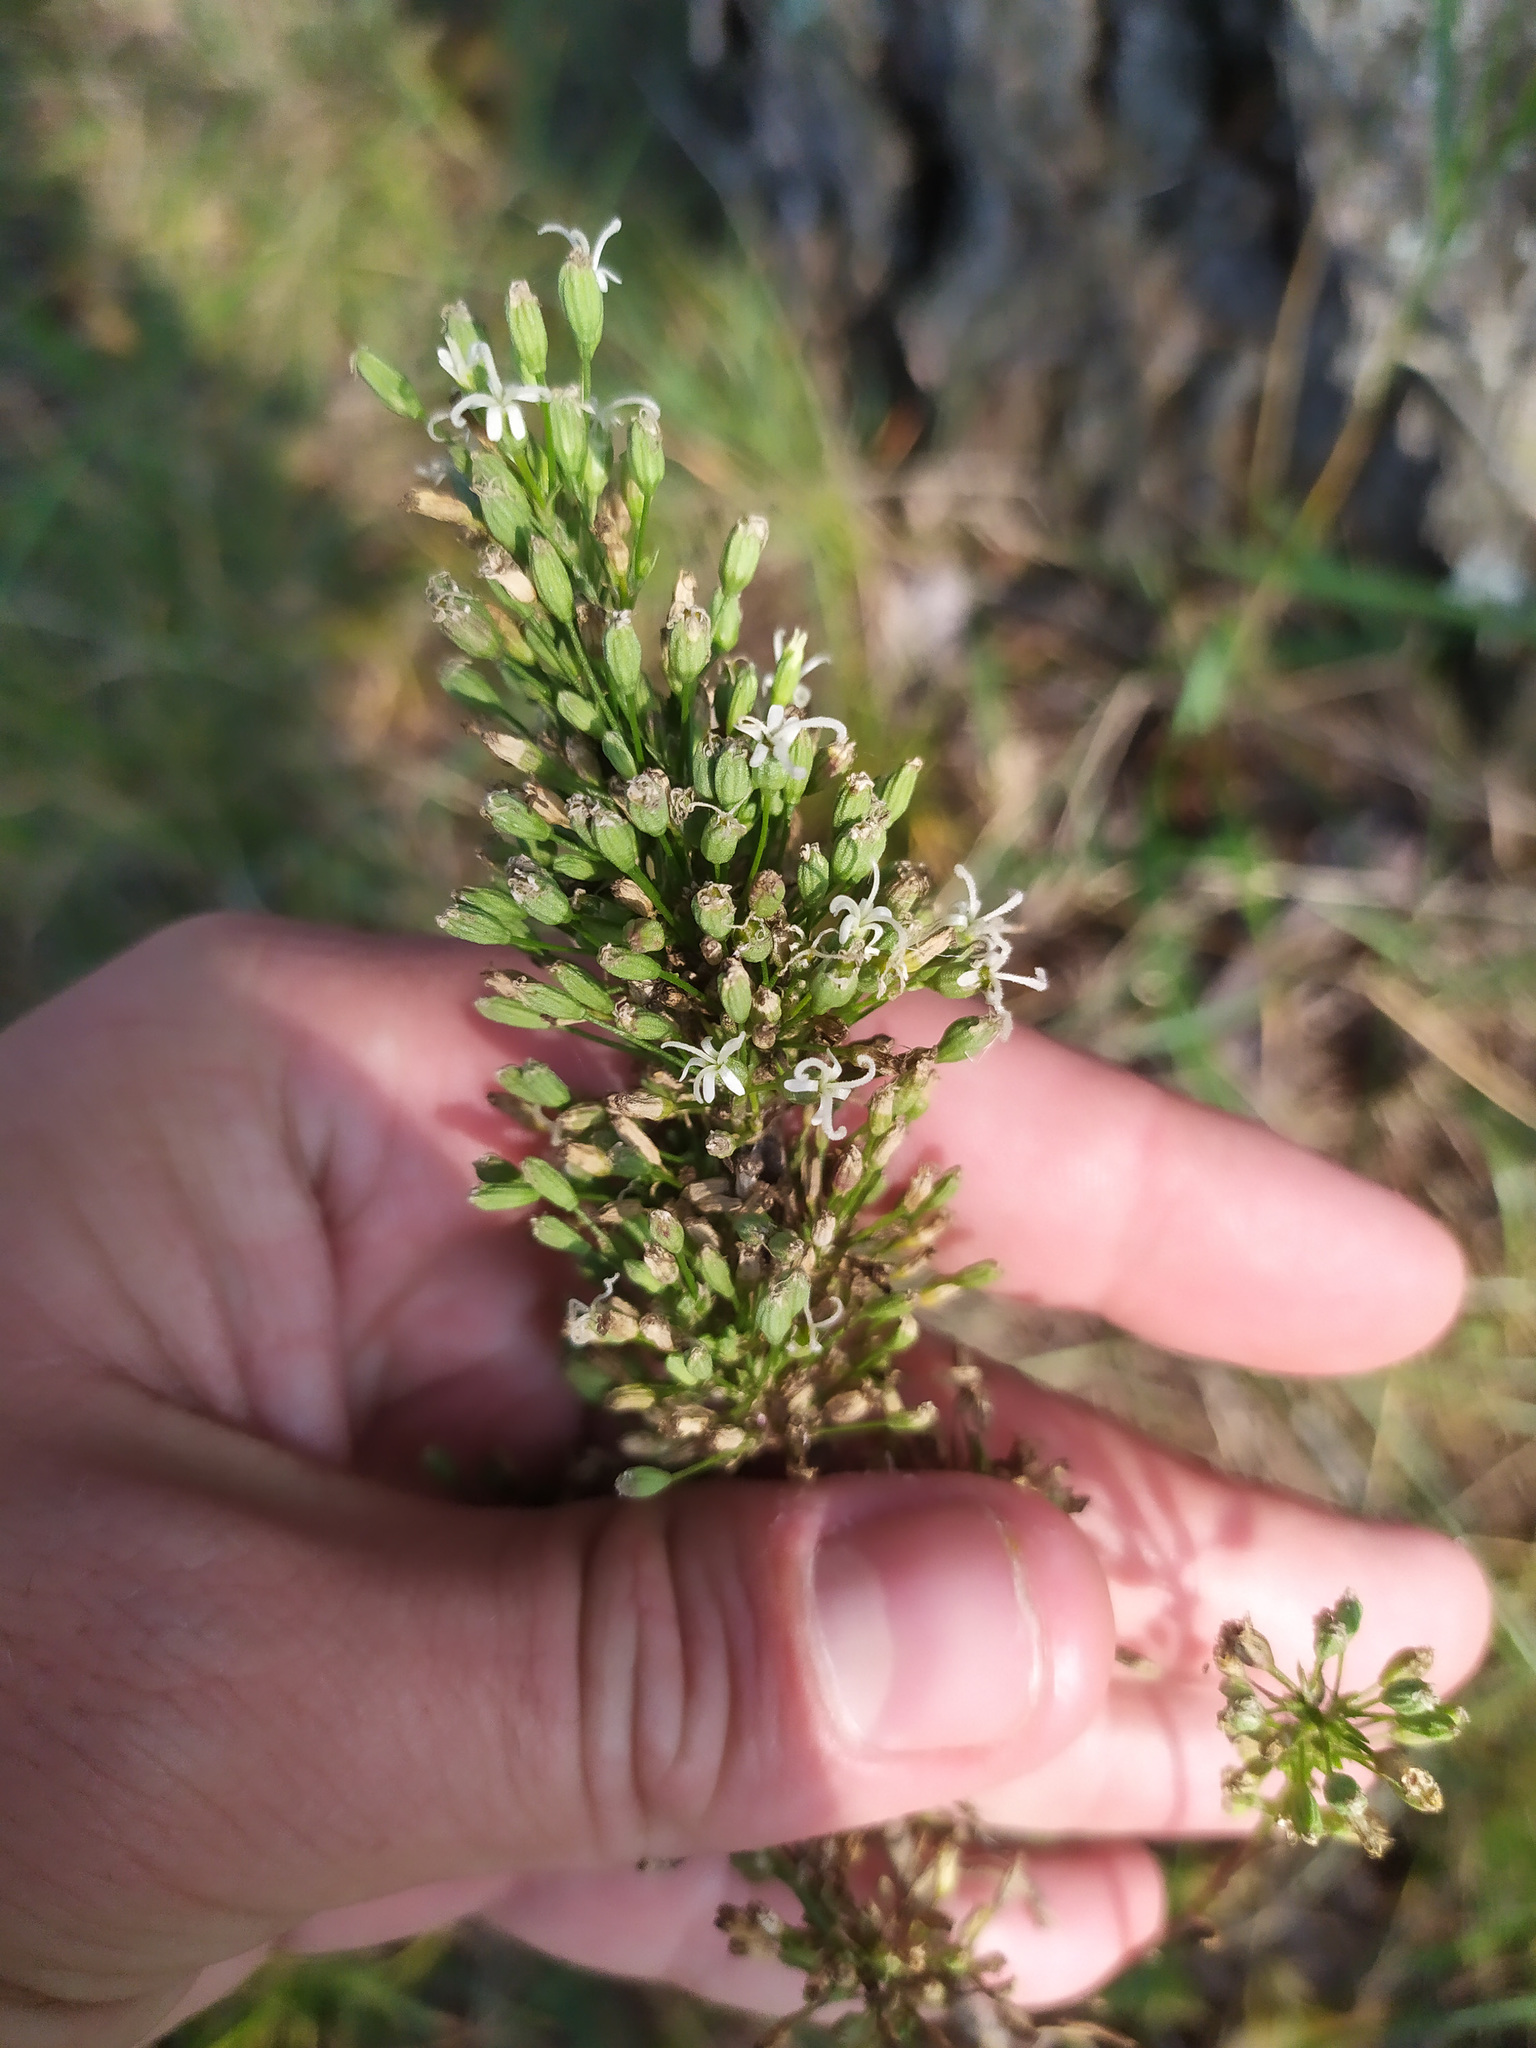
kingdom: Plantae
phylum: Tracheophyta
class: Magnoliopsida
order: Caryophyllales
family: Caryophyllaceae
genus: Silene
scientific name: Silene klokovii
